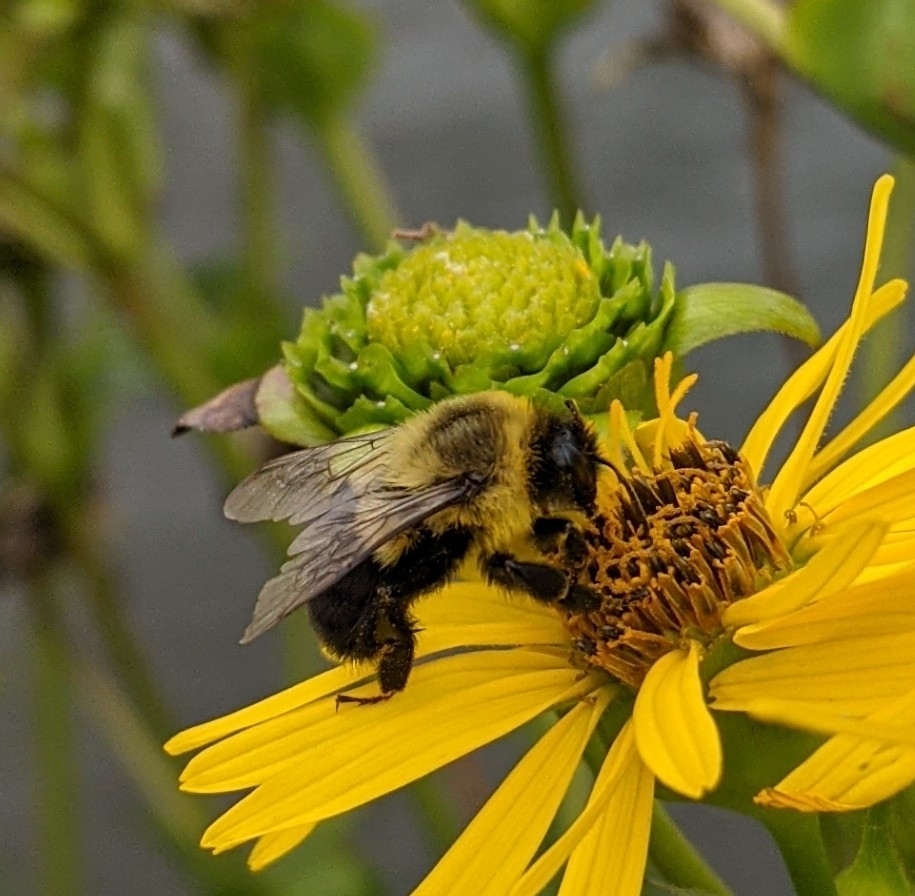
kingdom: Animalia
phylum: Arthropoda
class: Insecta
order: Hymenoptera
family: Apidae
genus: Bombus
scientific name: Bombus impatiens
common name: Common eastern bumble bee
